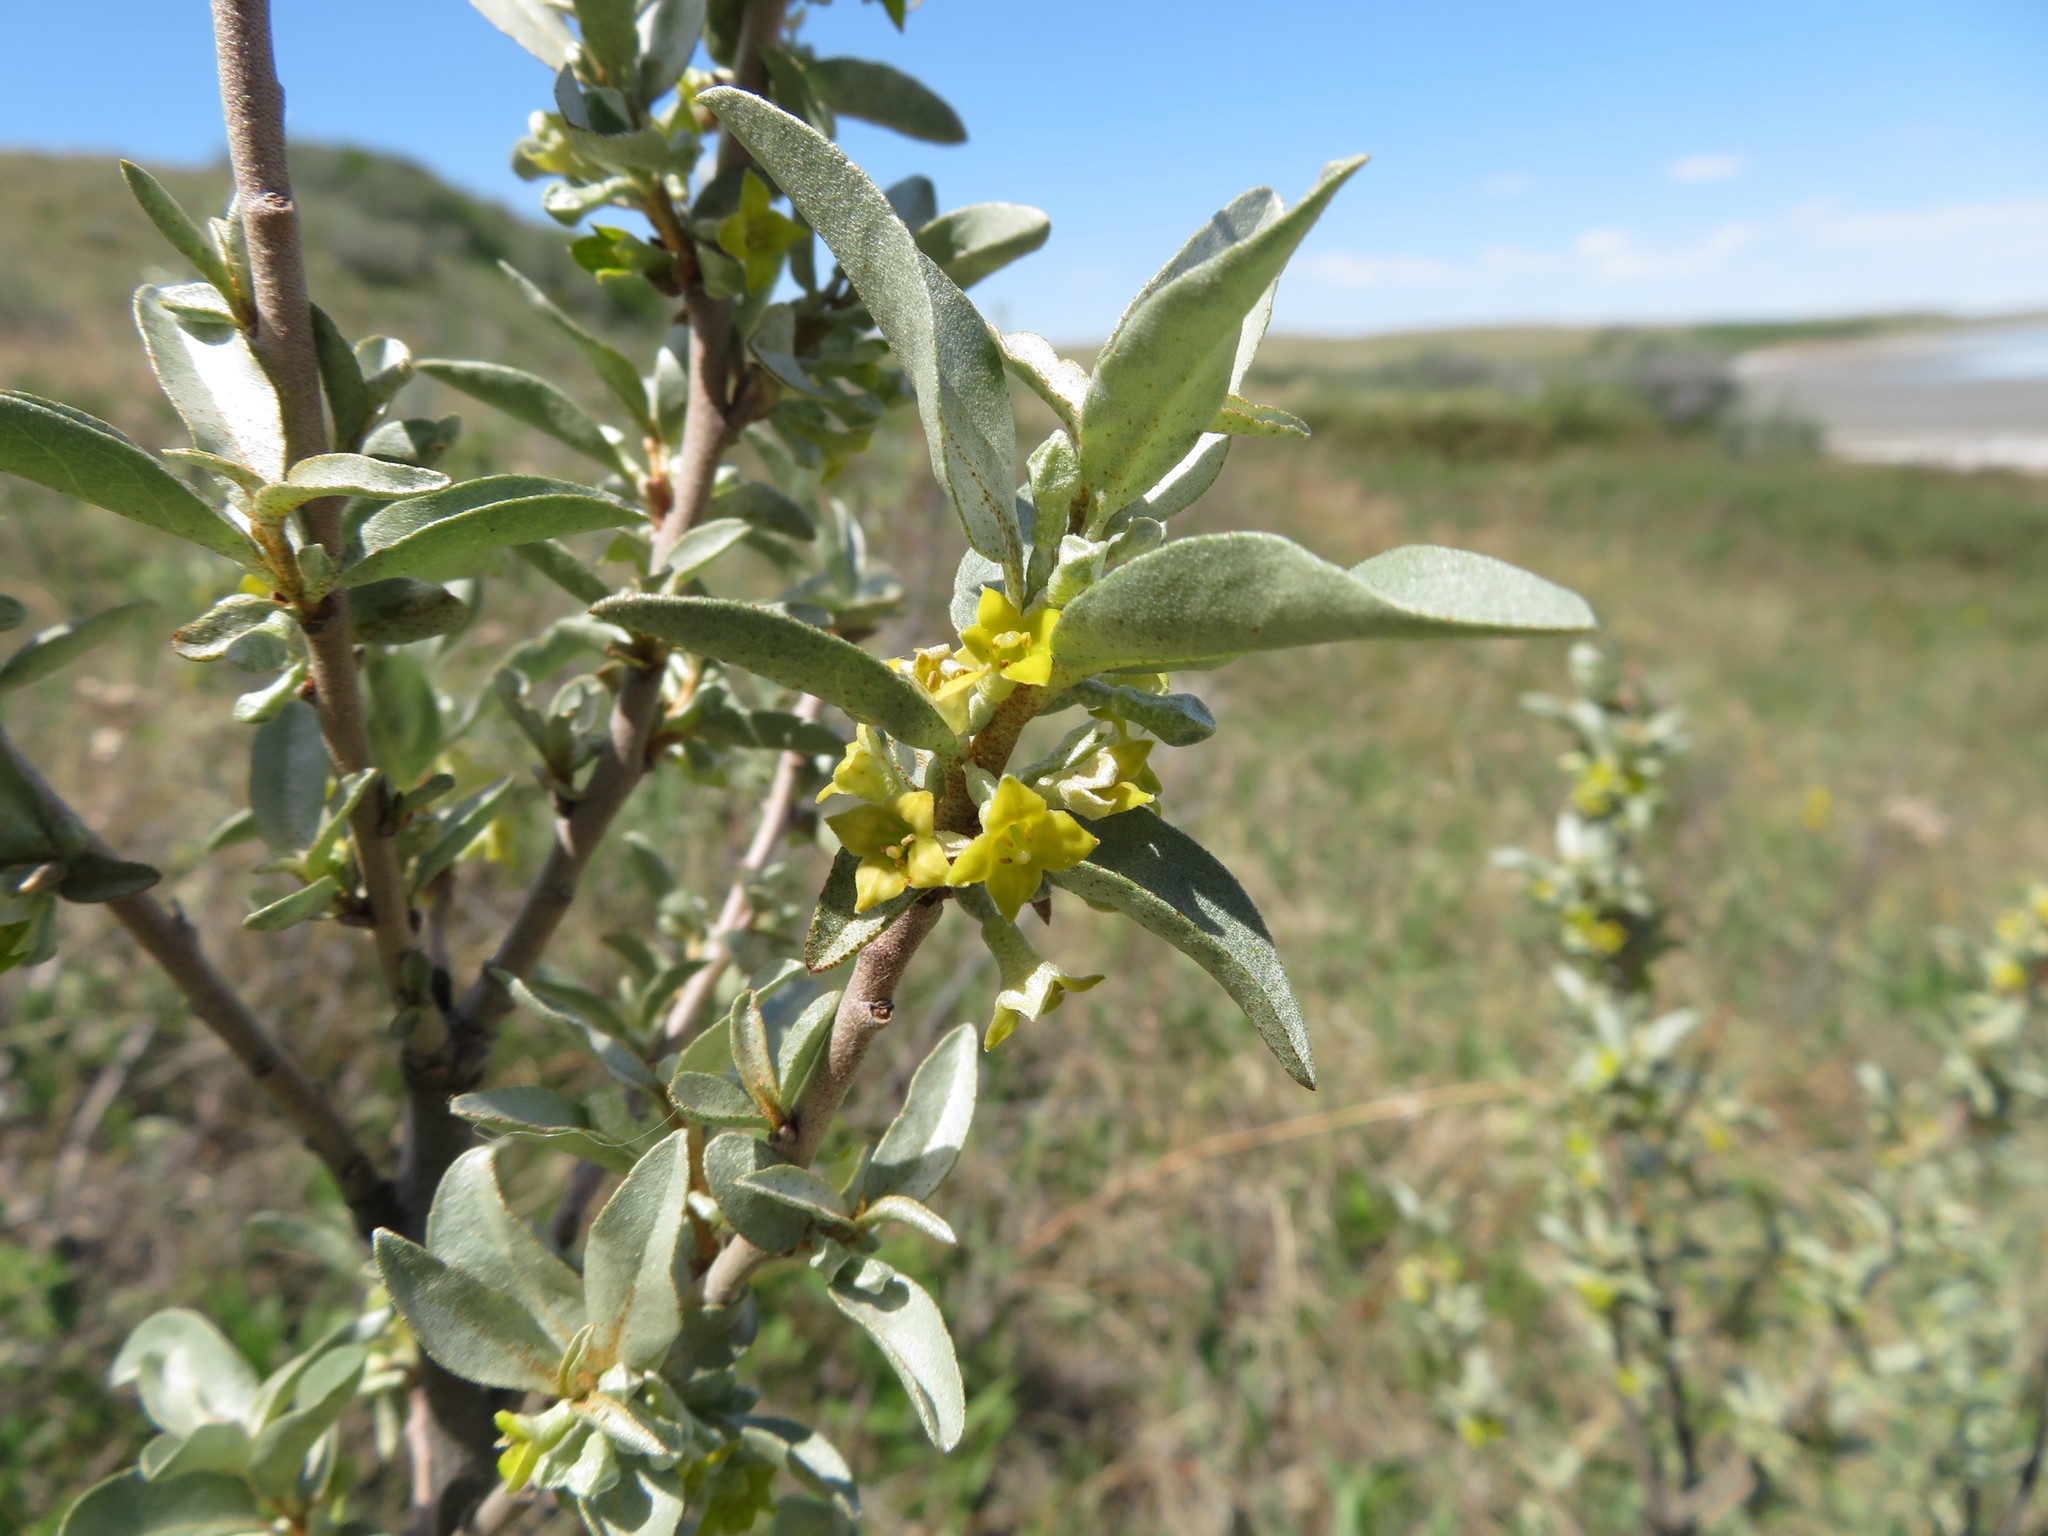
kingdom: Plantae
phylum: Tracheophyta
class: Magnoliopsida
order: Rosales
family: Elaeagnaceae
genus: Elaeagnus
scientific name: Elaeagnus commutata
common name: Silverberry
